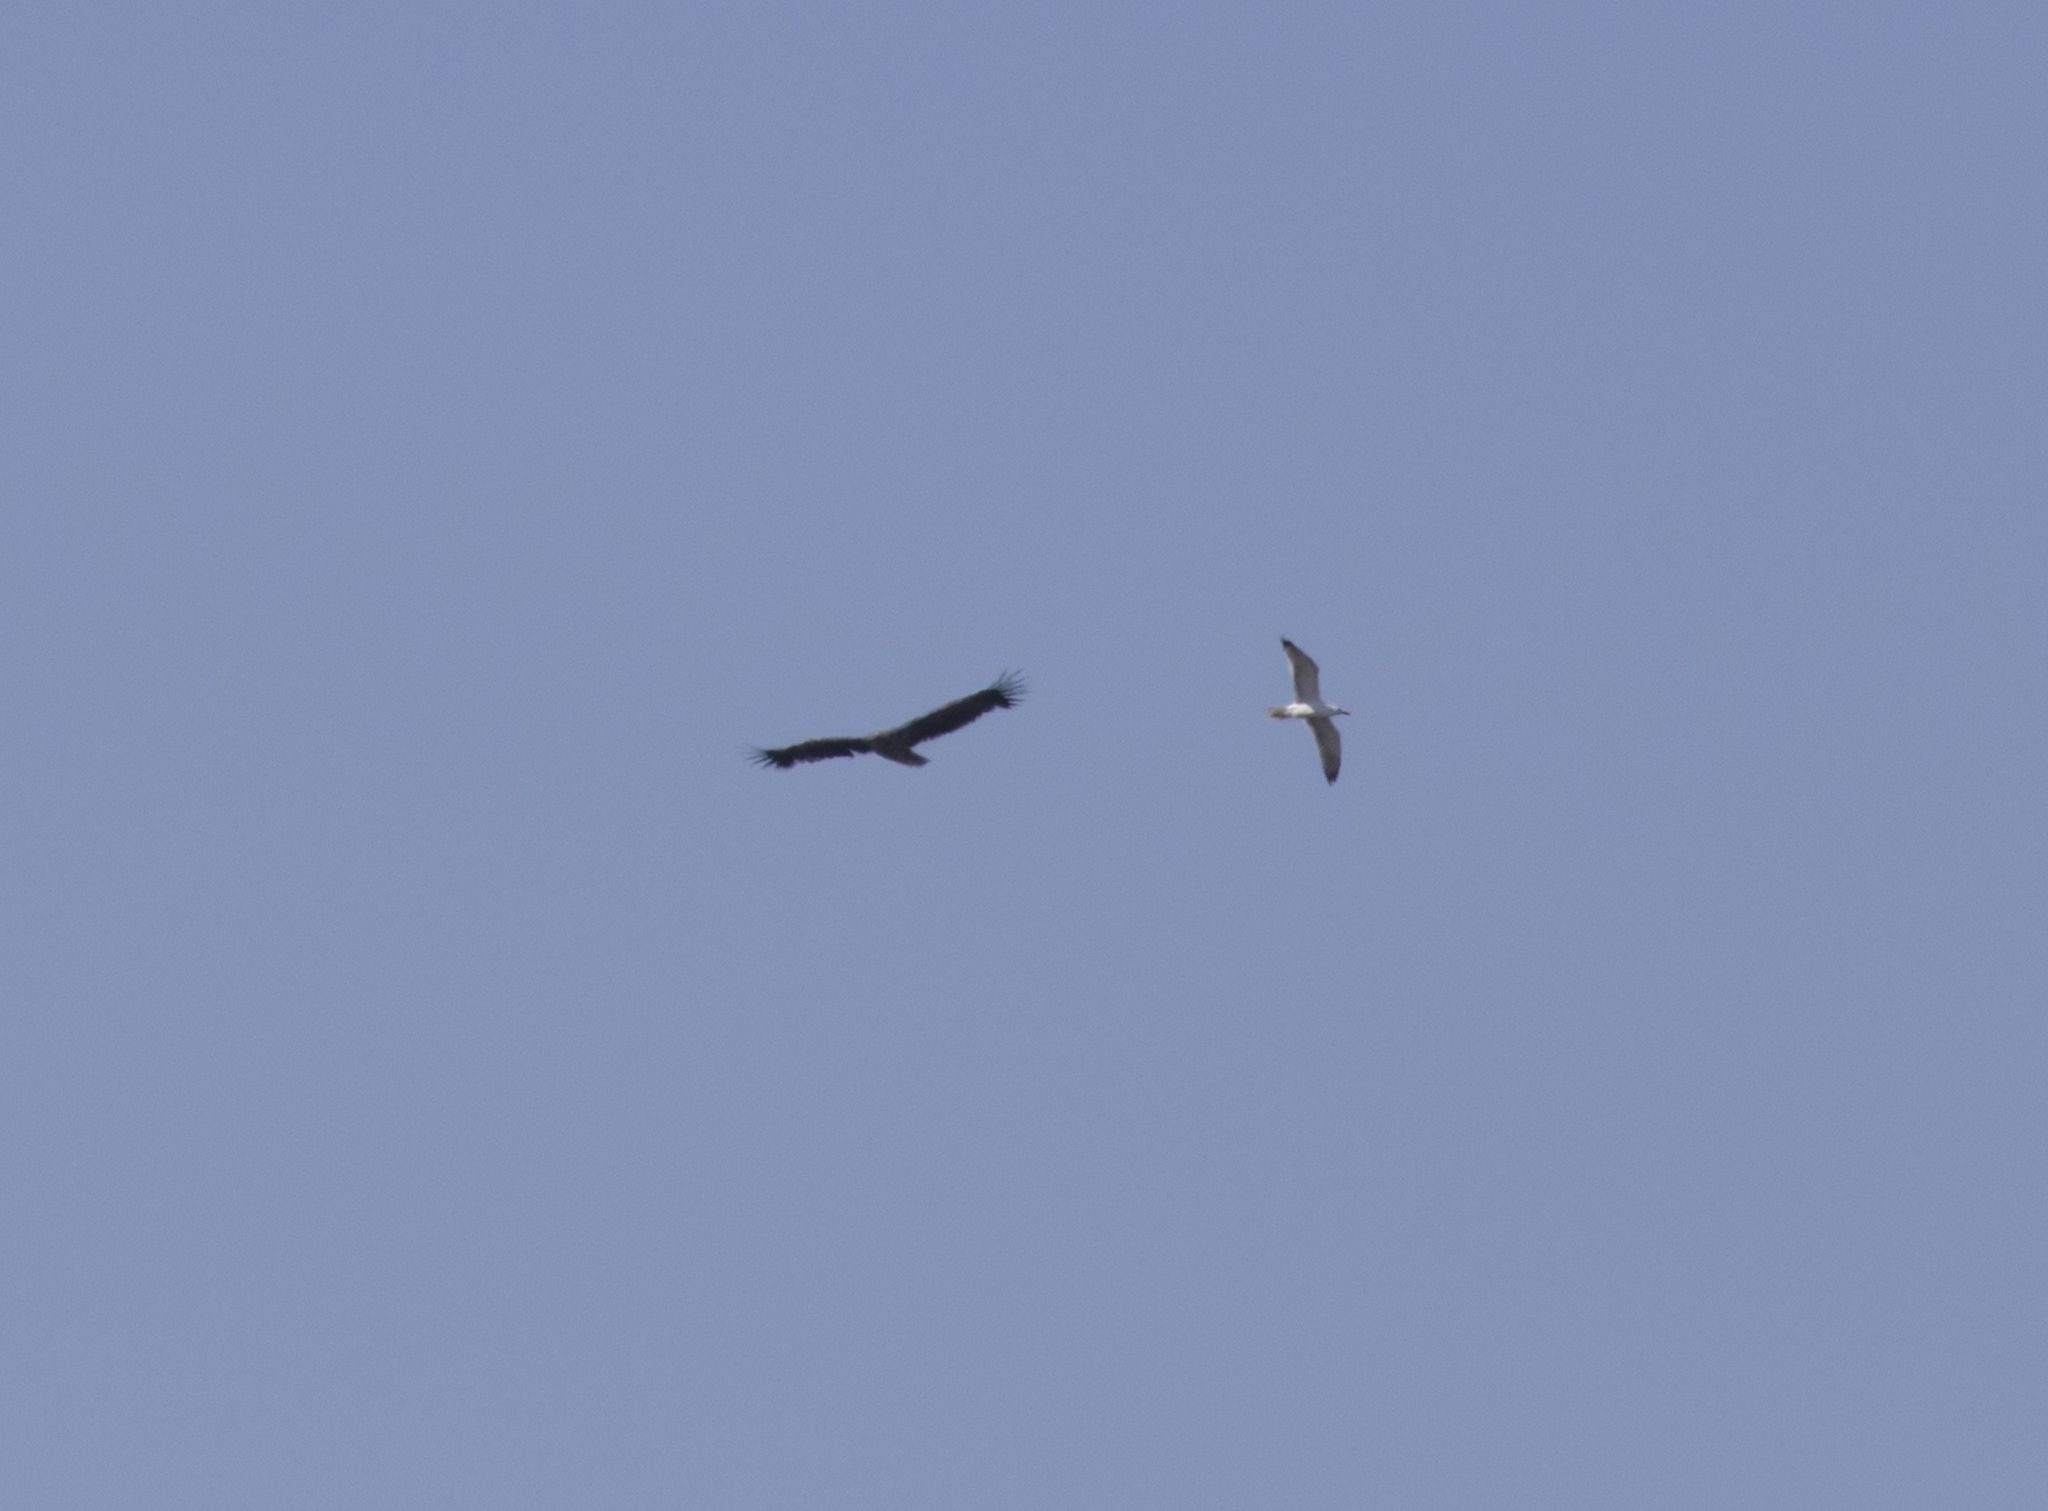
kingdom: Animalia
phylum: Chordata
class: Aves
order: Accipitriformes
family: Accipitridae
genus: Aquila
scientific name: Aquila heliaca
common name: Eastern imperial eagle
